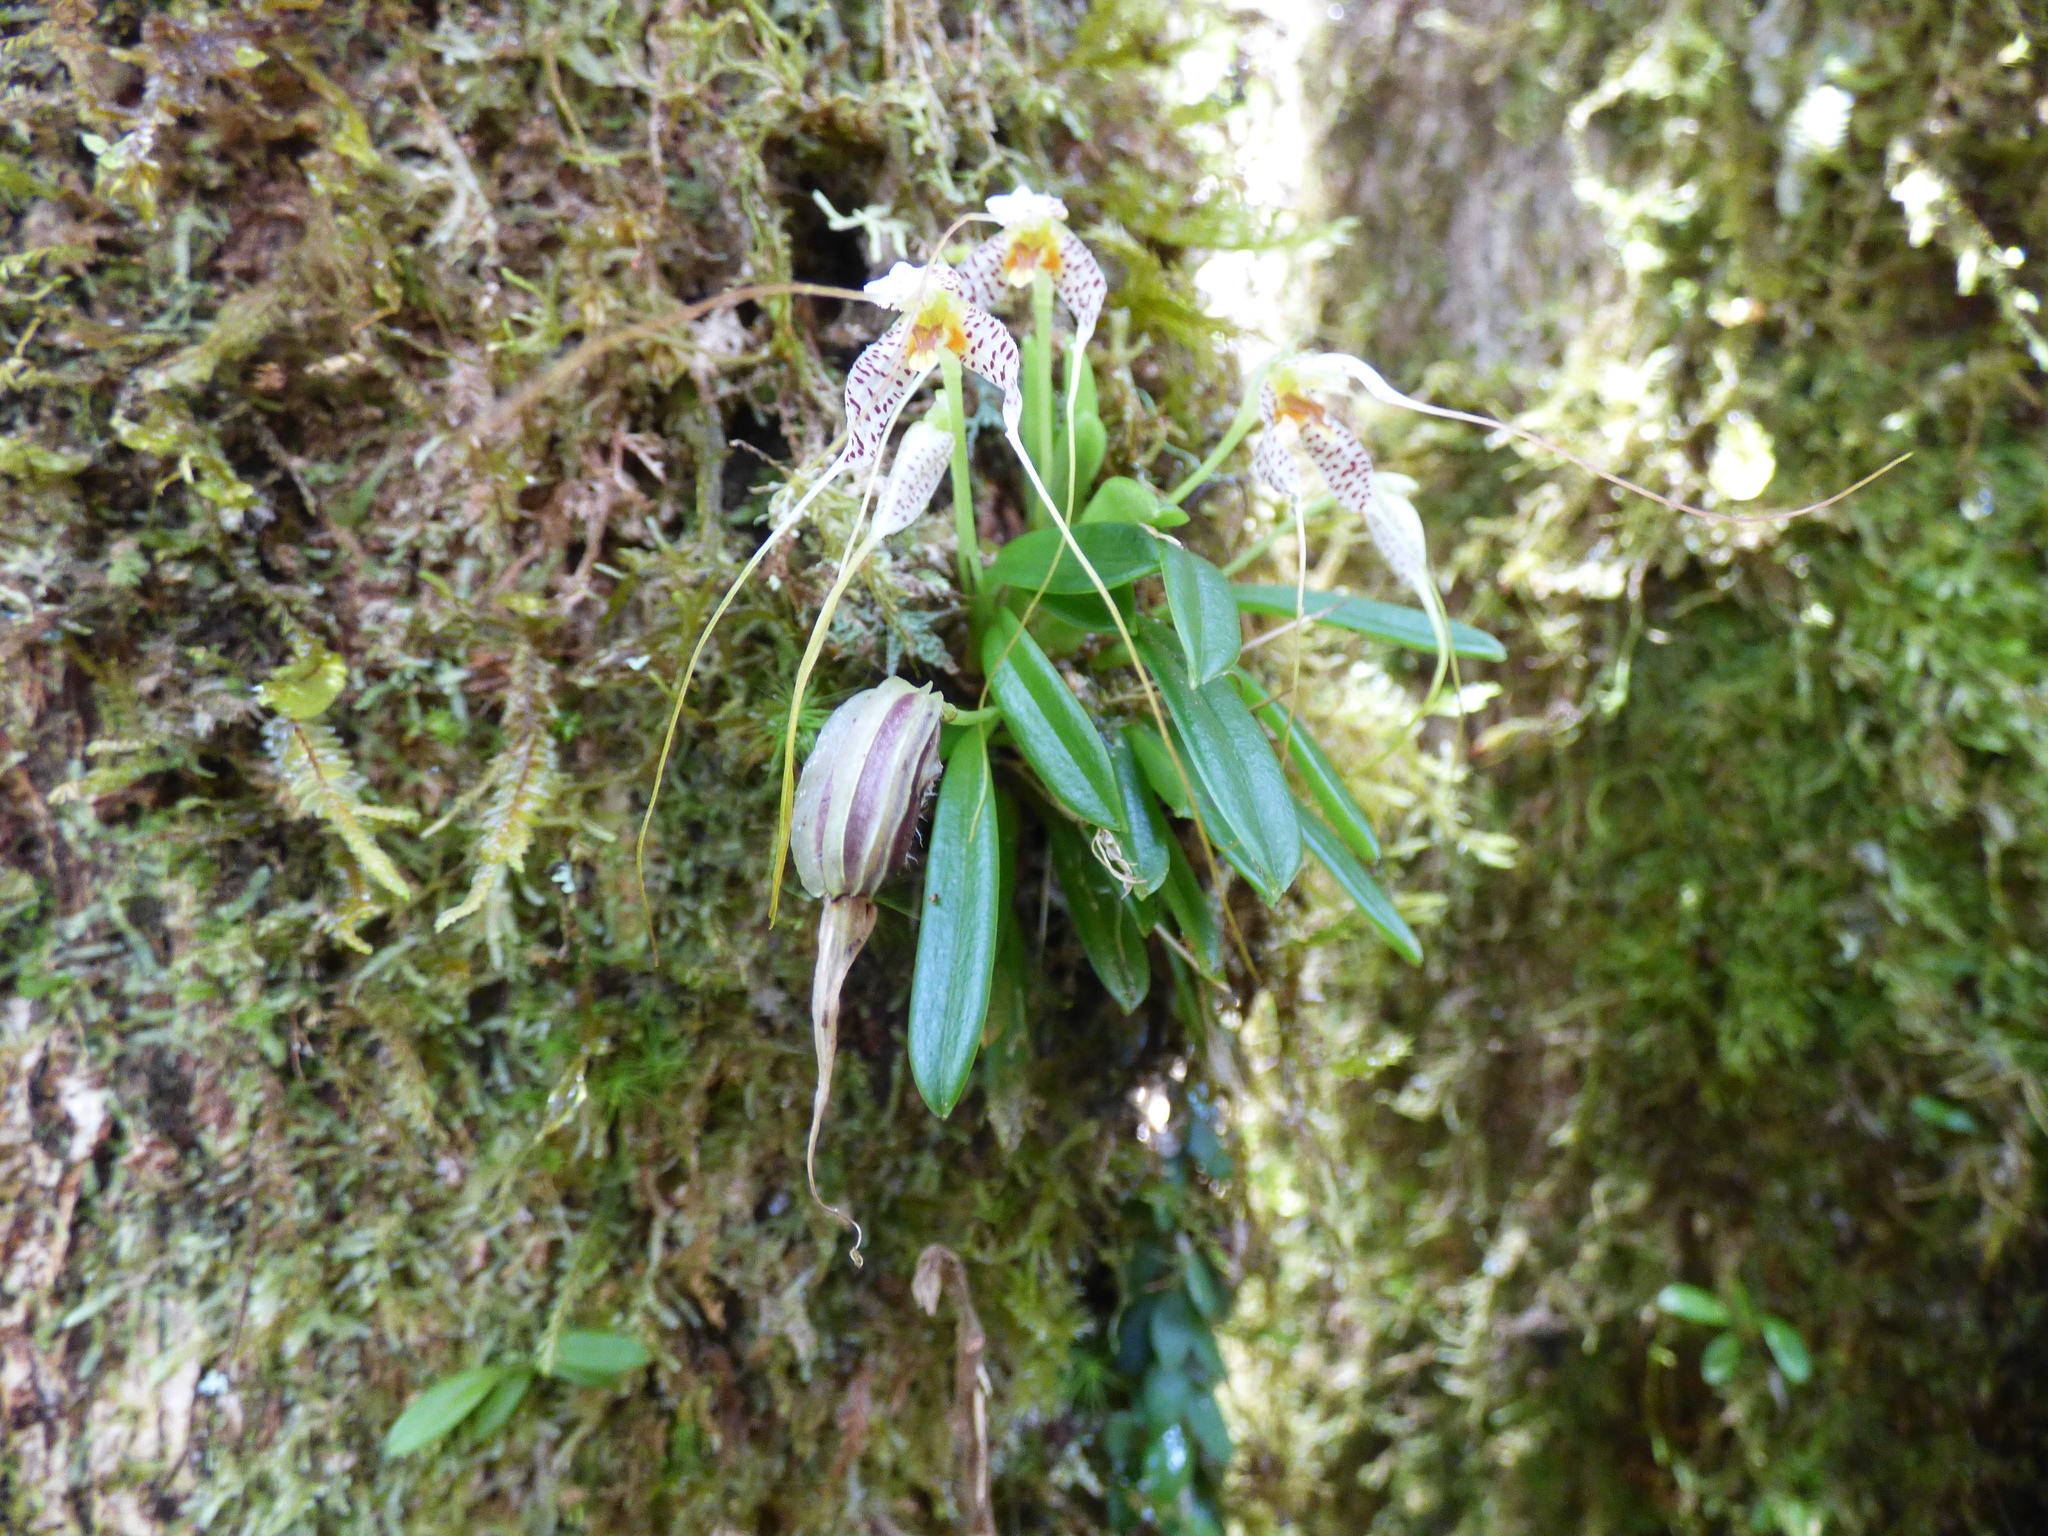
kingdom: Plantae
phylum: Tracheophyta
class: Liliopsida
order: Asparagales
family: Orchidaceae
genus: Masdevallia
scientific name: Masdevallia picturata
